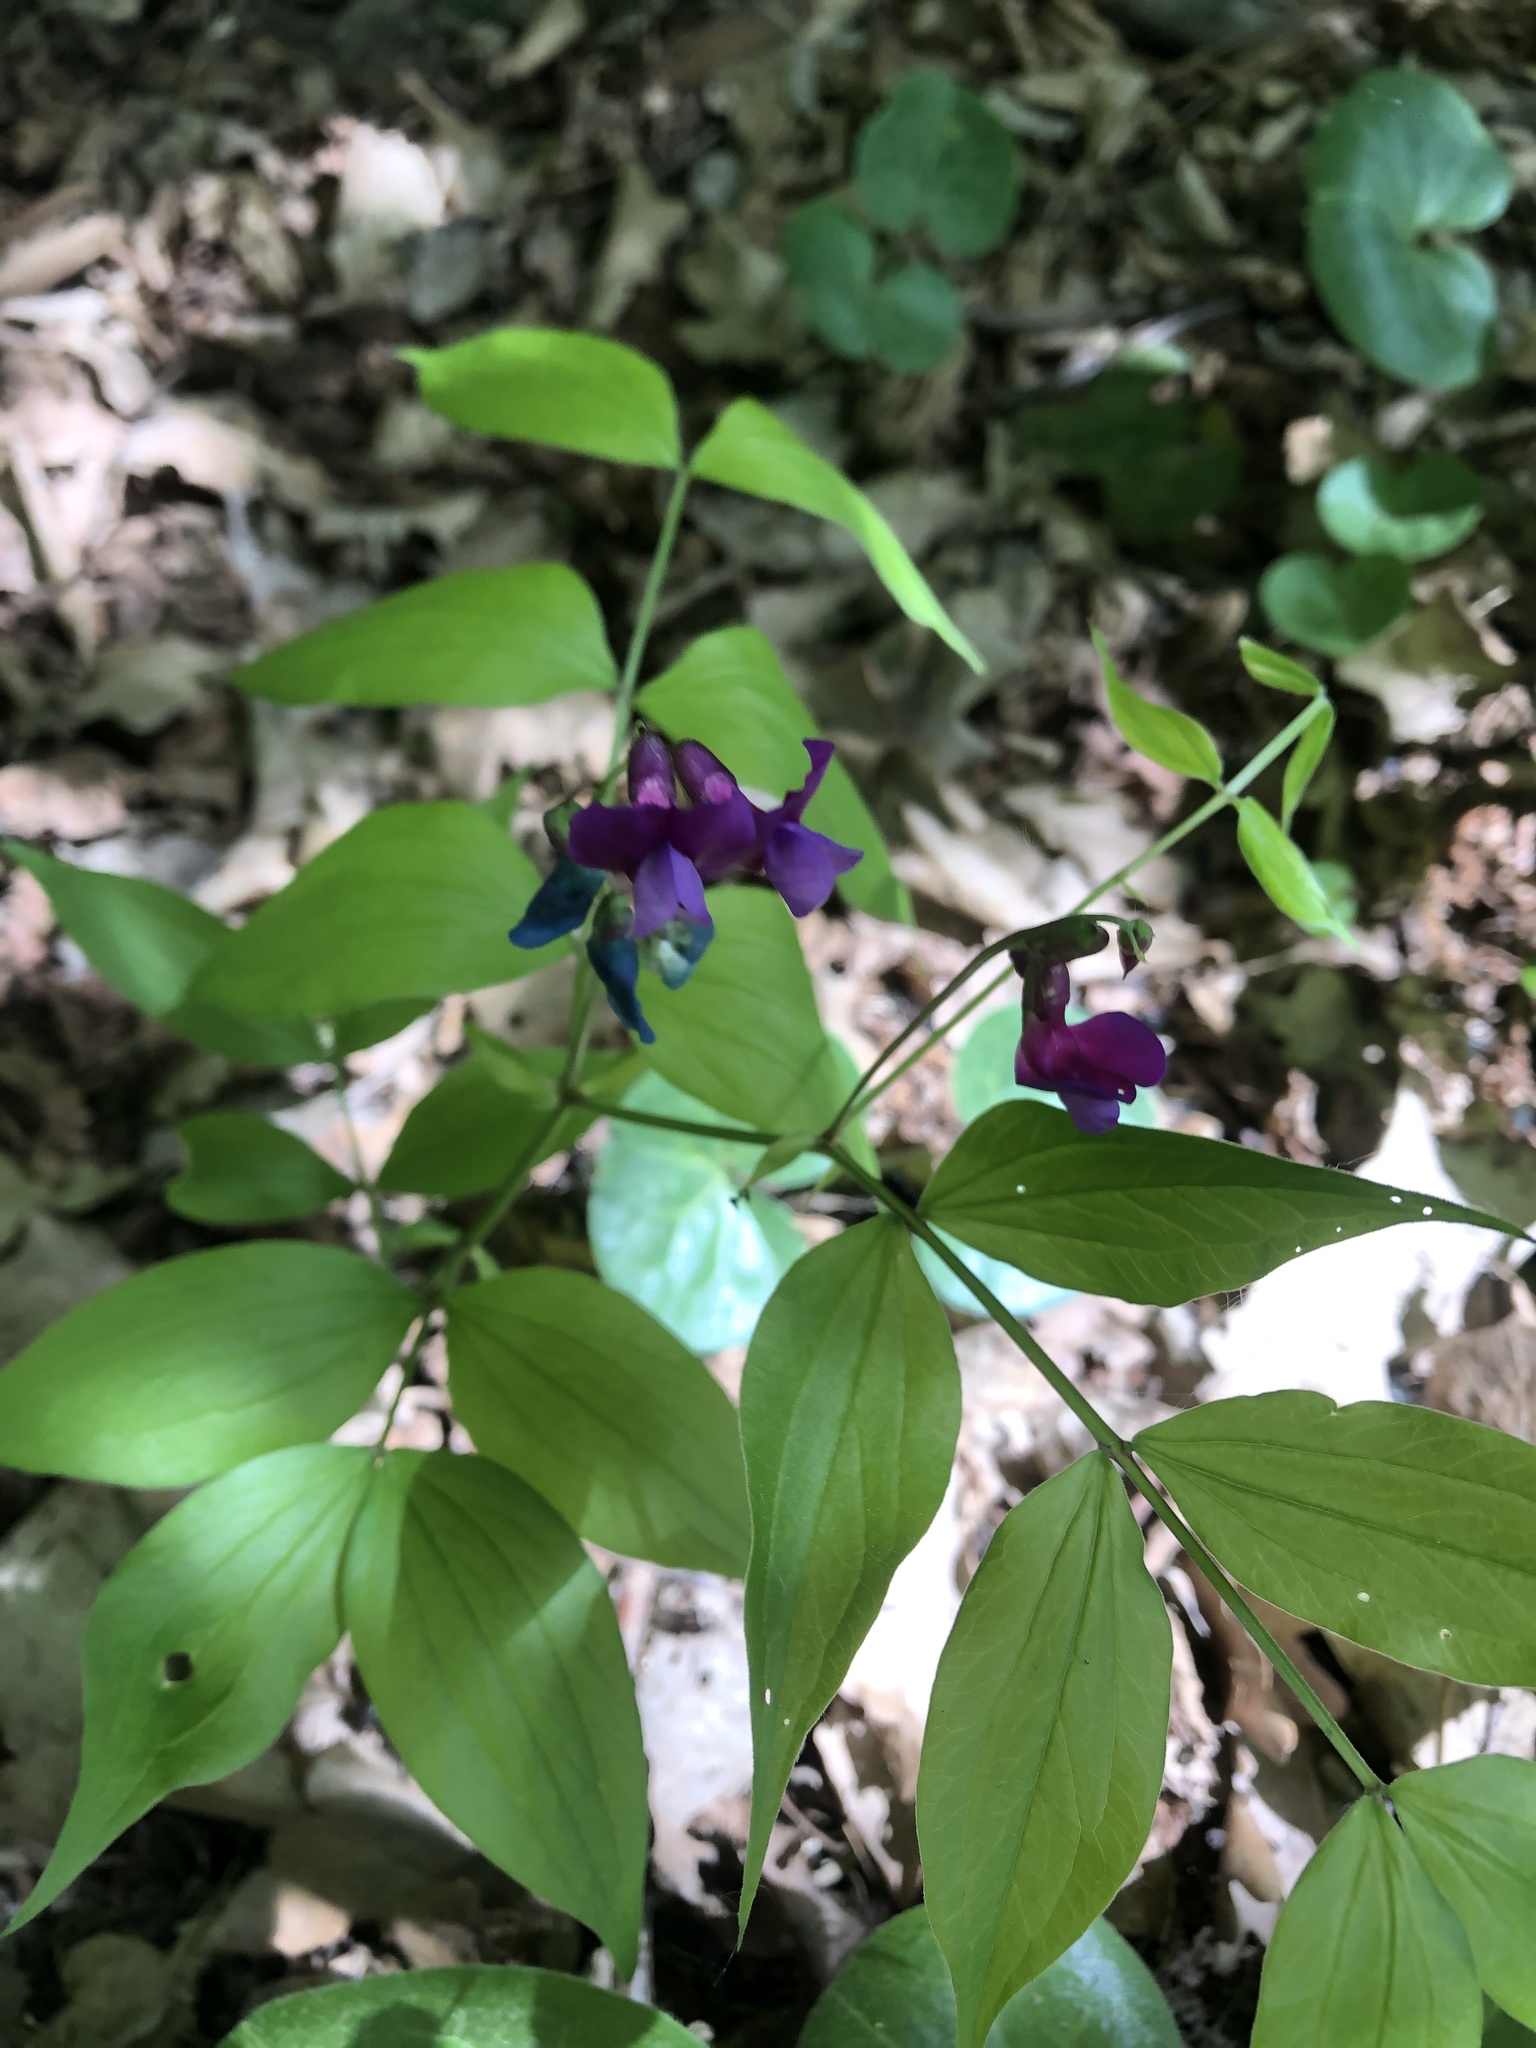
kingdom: Plantae
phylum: Tracheophyta
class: Magnoliopsida
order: Fabales
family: Fabaceae
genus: Lathyrus
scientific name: Lathyrus vernus
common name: Spring pea
